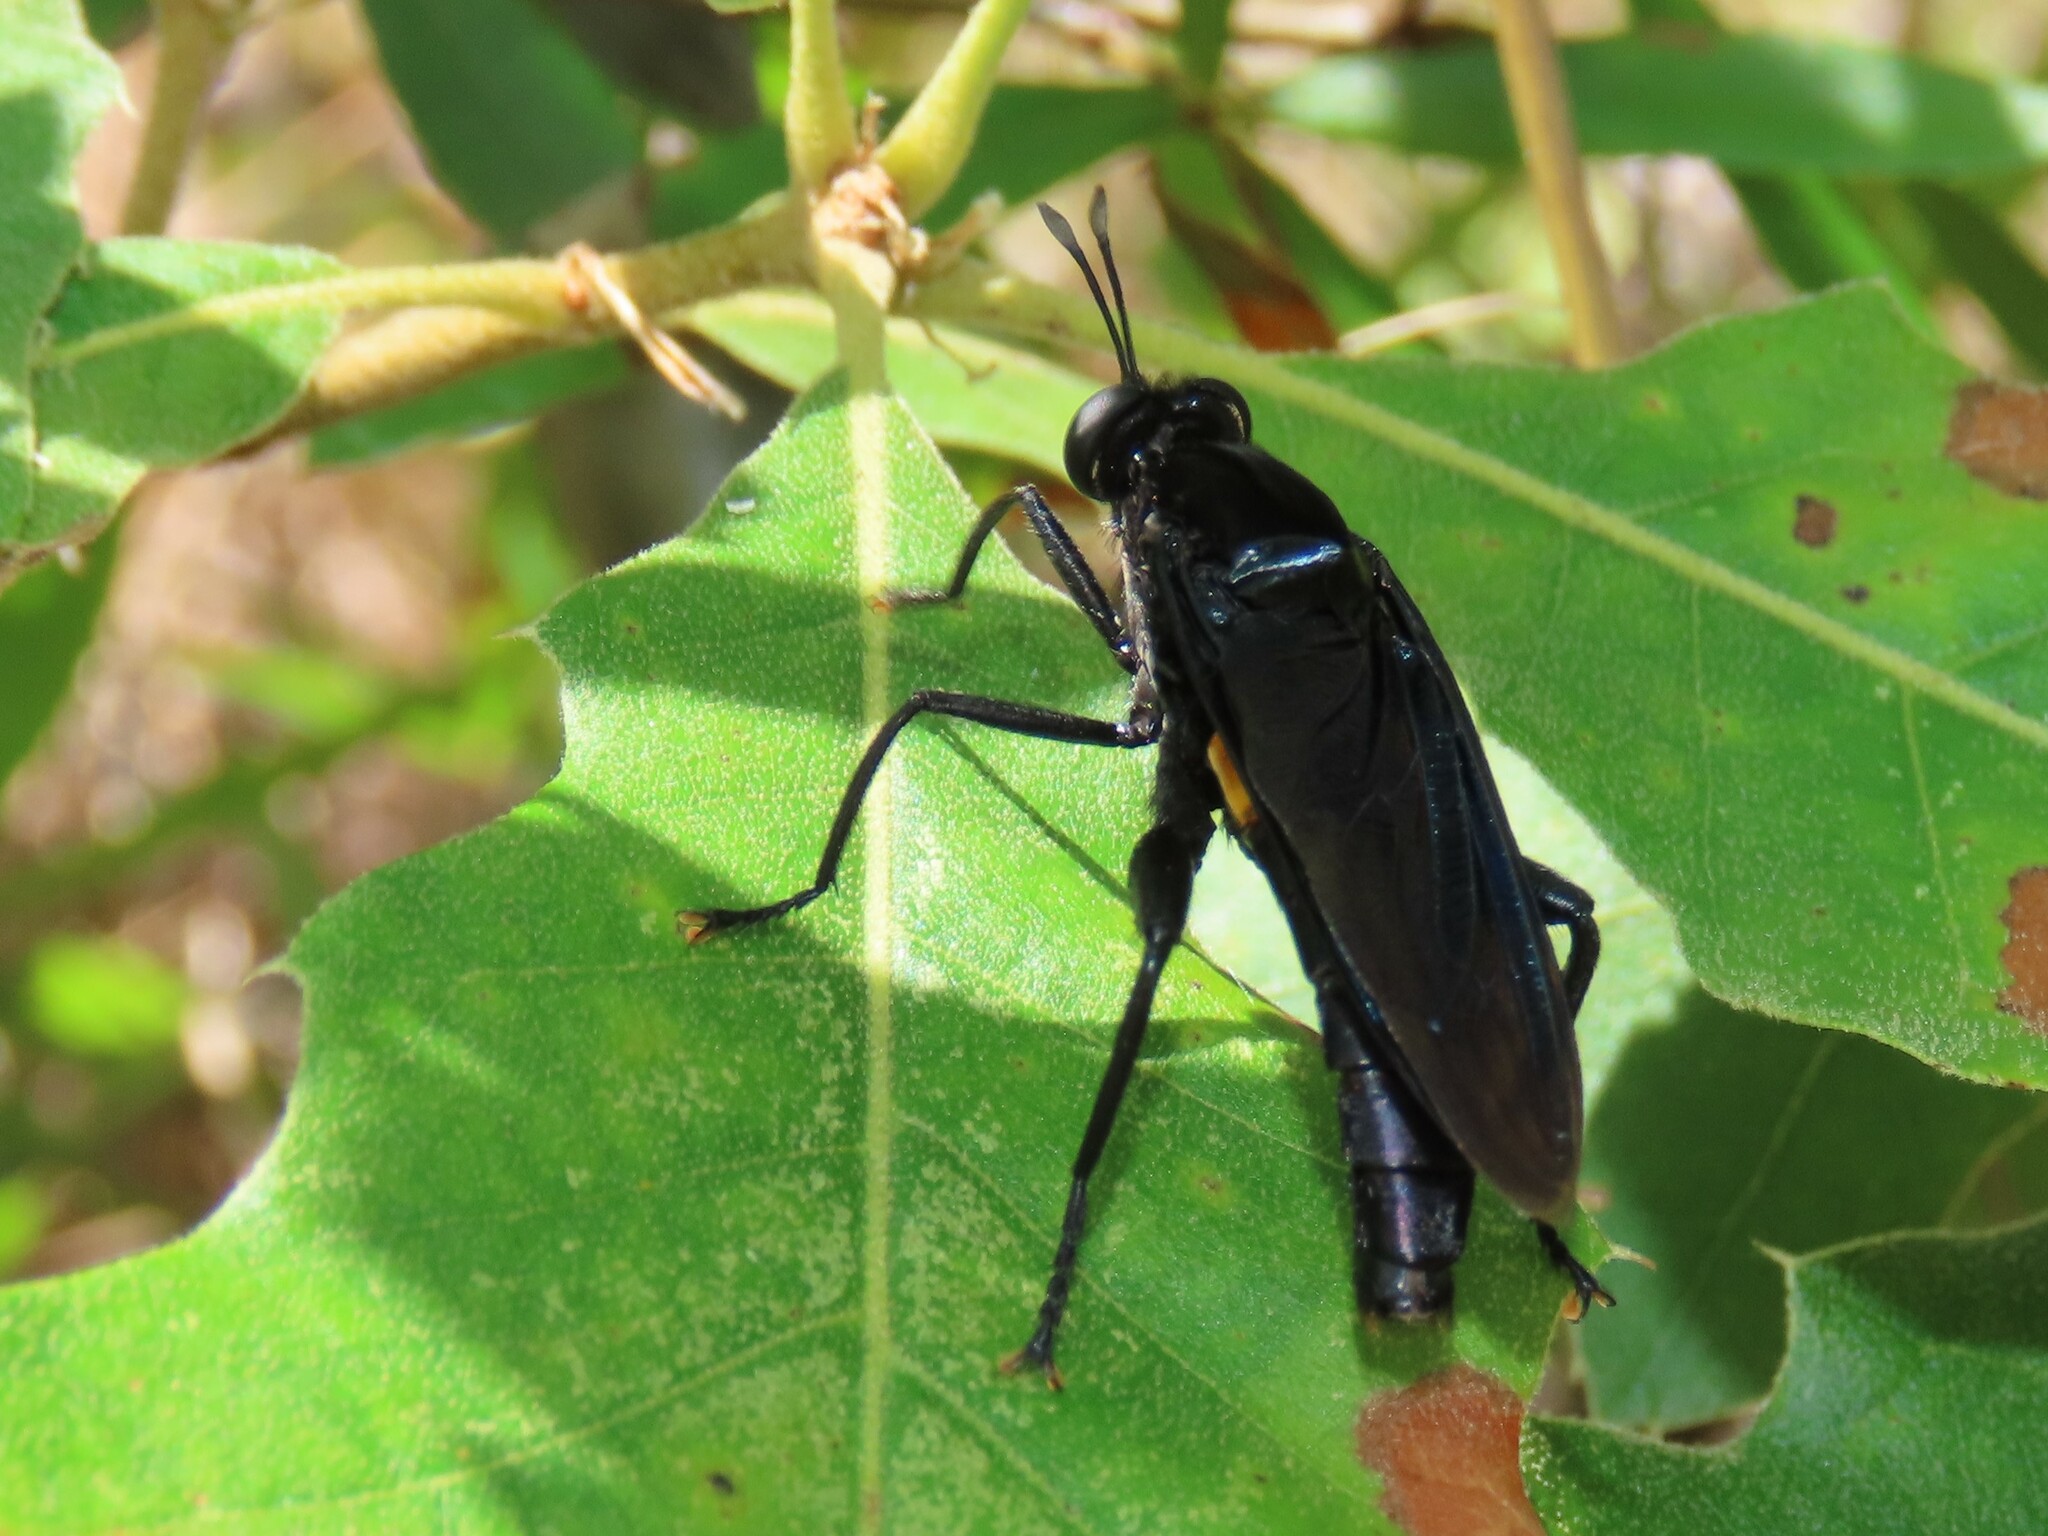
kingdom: Animalia
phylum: Arthropoda
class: Insecta
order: Diptera
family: Mydidae
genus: Mydas
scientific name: Mydas clavatus
